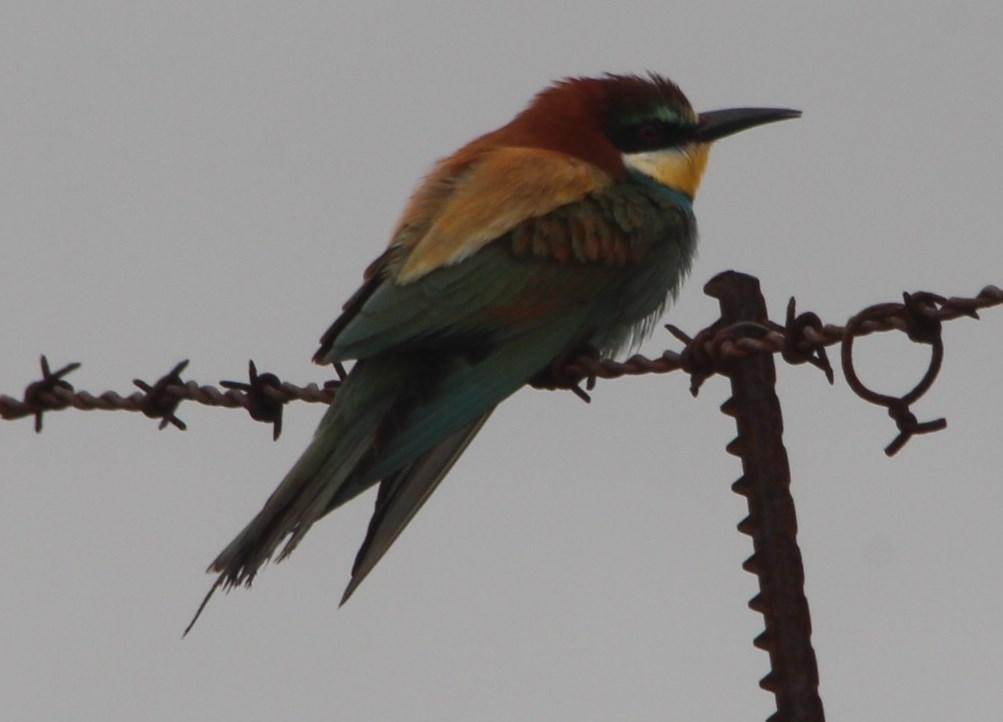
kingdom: Animalia
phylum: Chordata
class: Aves
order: Coraciiformes
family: Meropidae
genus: Merops
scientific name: Merops apiaster
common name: European bee-eater
